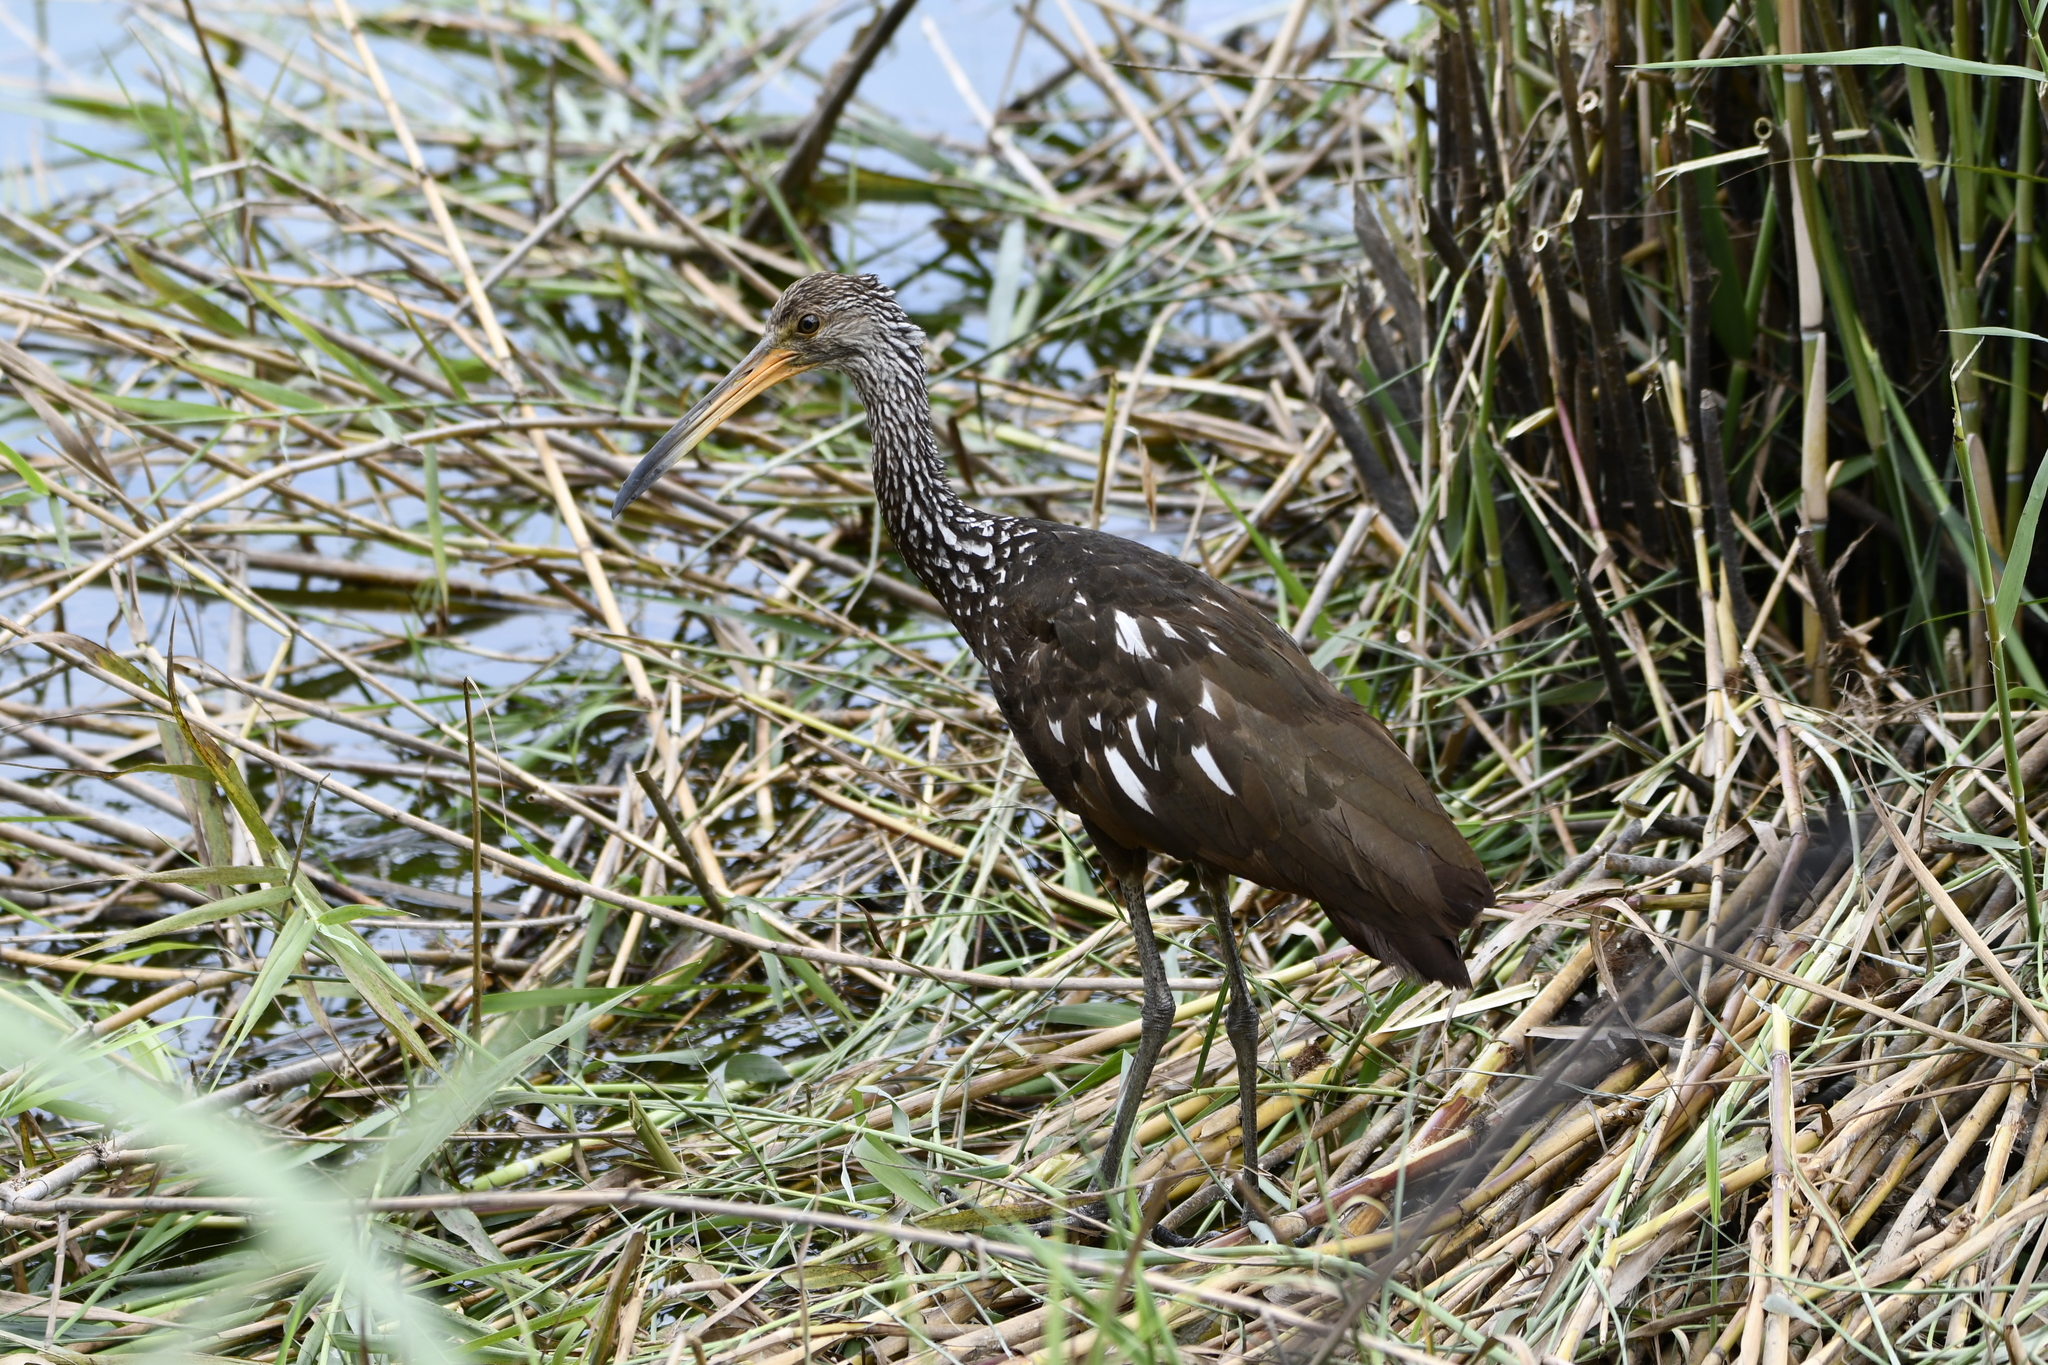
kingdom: Animalia
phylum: Chordata
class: Aves
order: Gruiformes
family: Aramidae
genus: Aramus
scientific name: Aramus guarauna
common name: Limpkin
